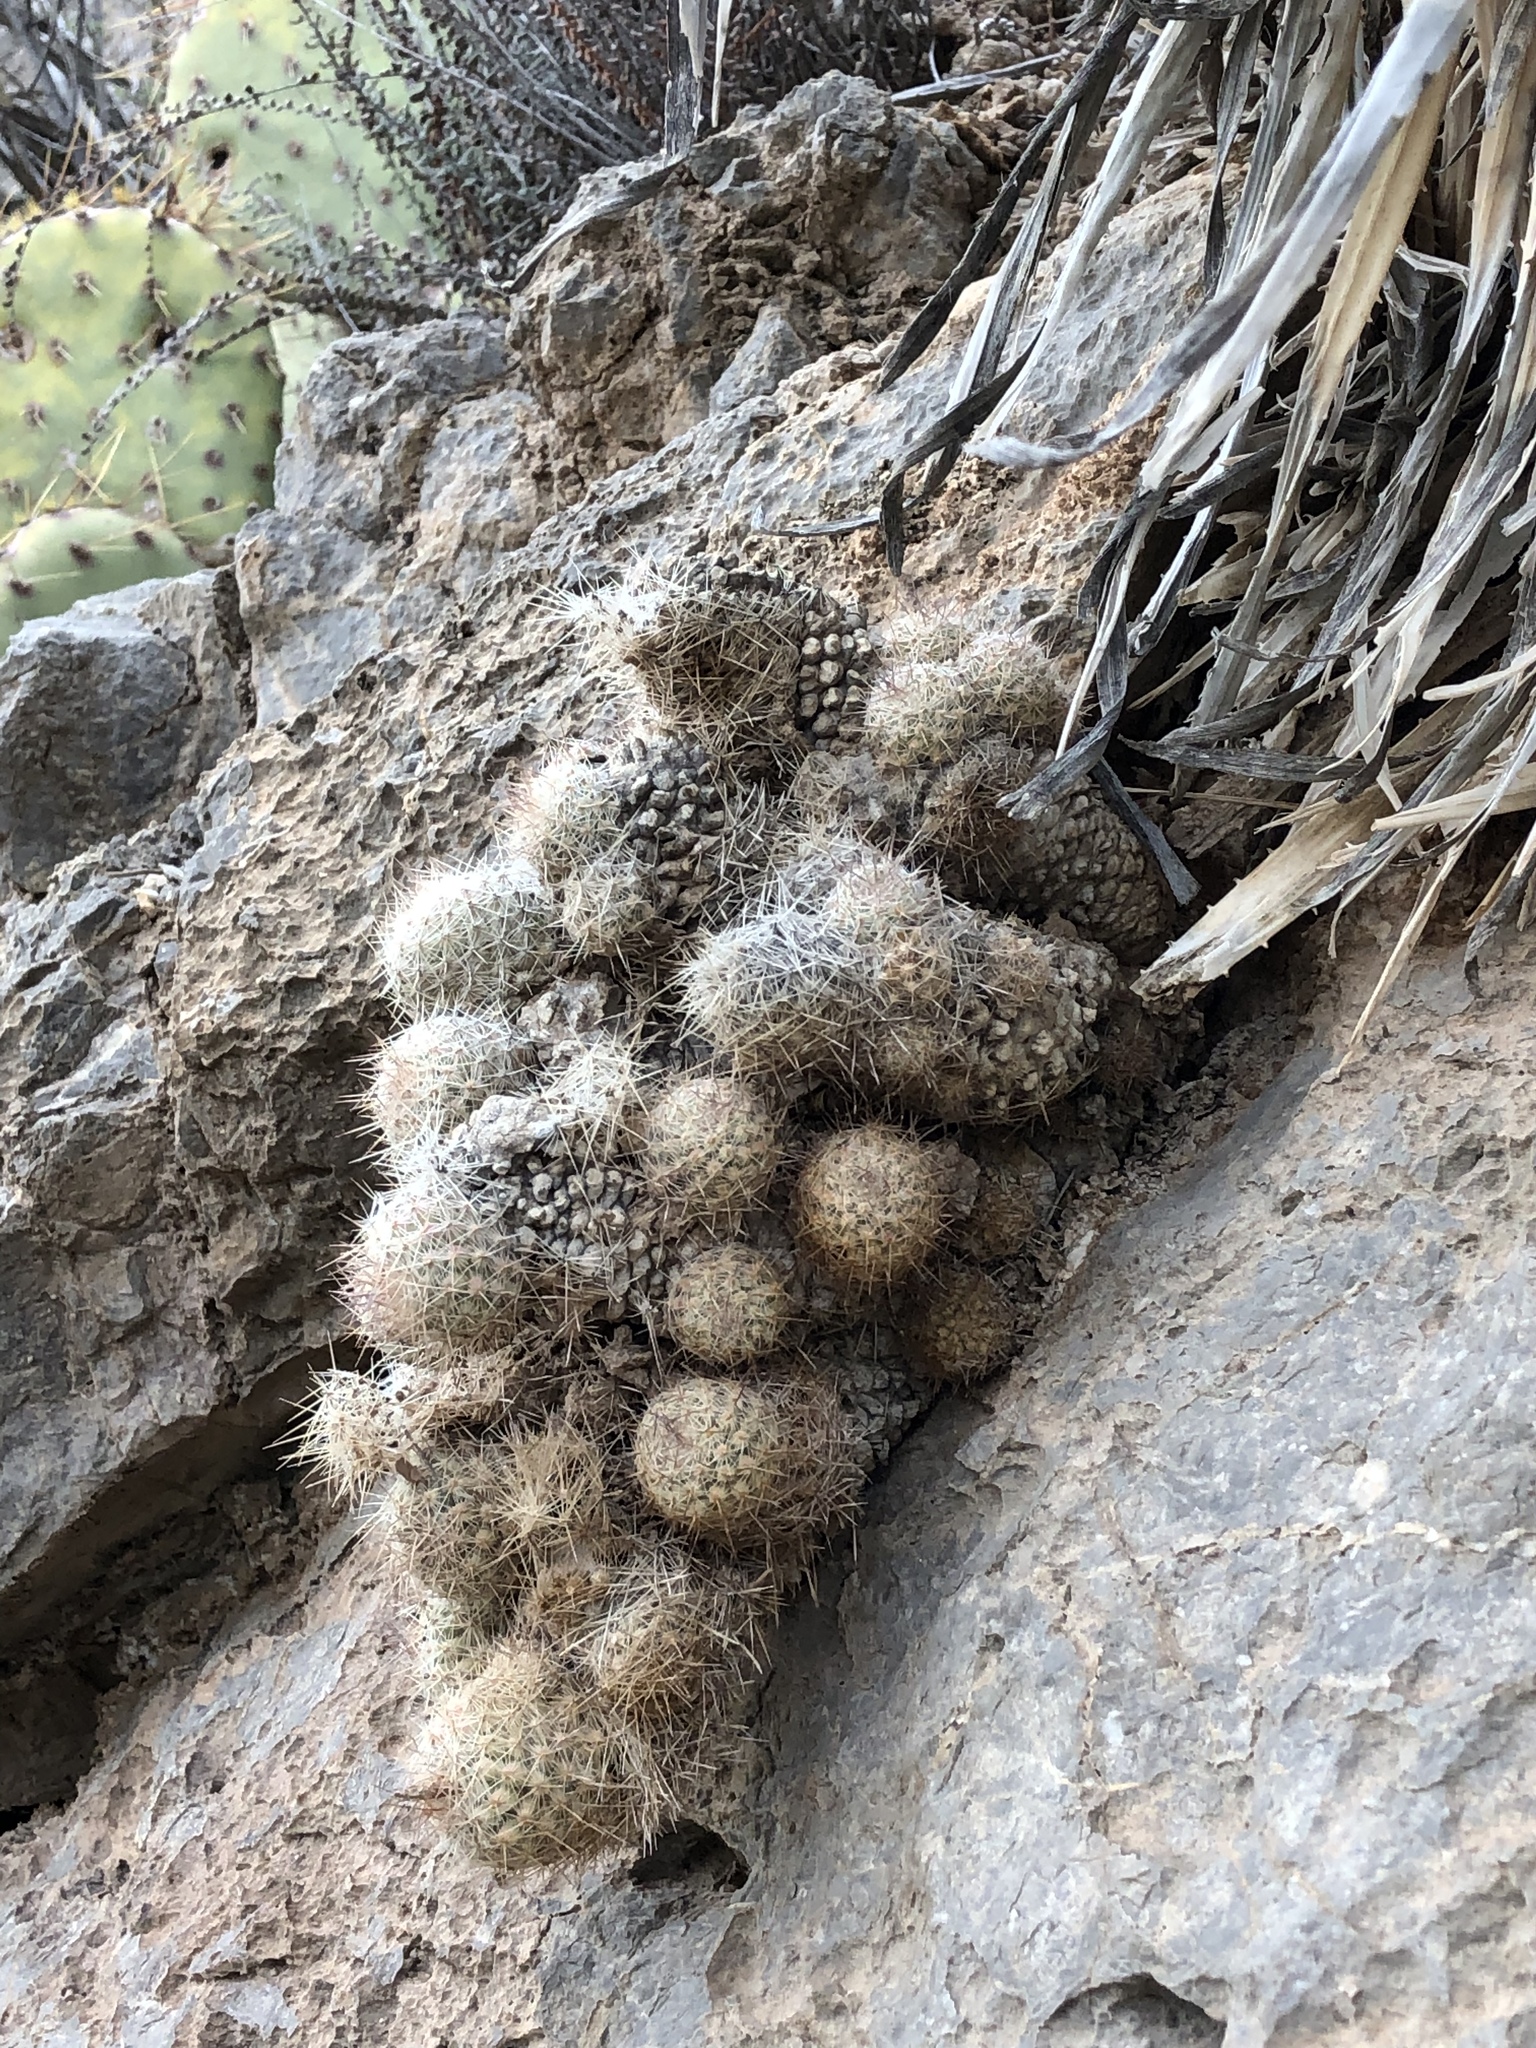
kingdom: Plantae
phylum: Tracheophyta
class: Magnoliopsida
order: Caryophyllales
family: Cactaceae
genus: Pelecyphora
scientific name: Pelecyphora tuberculosa
